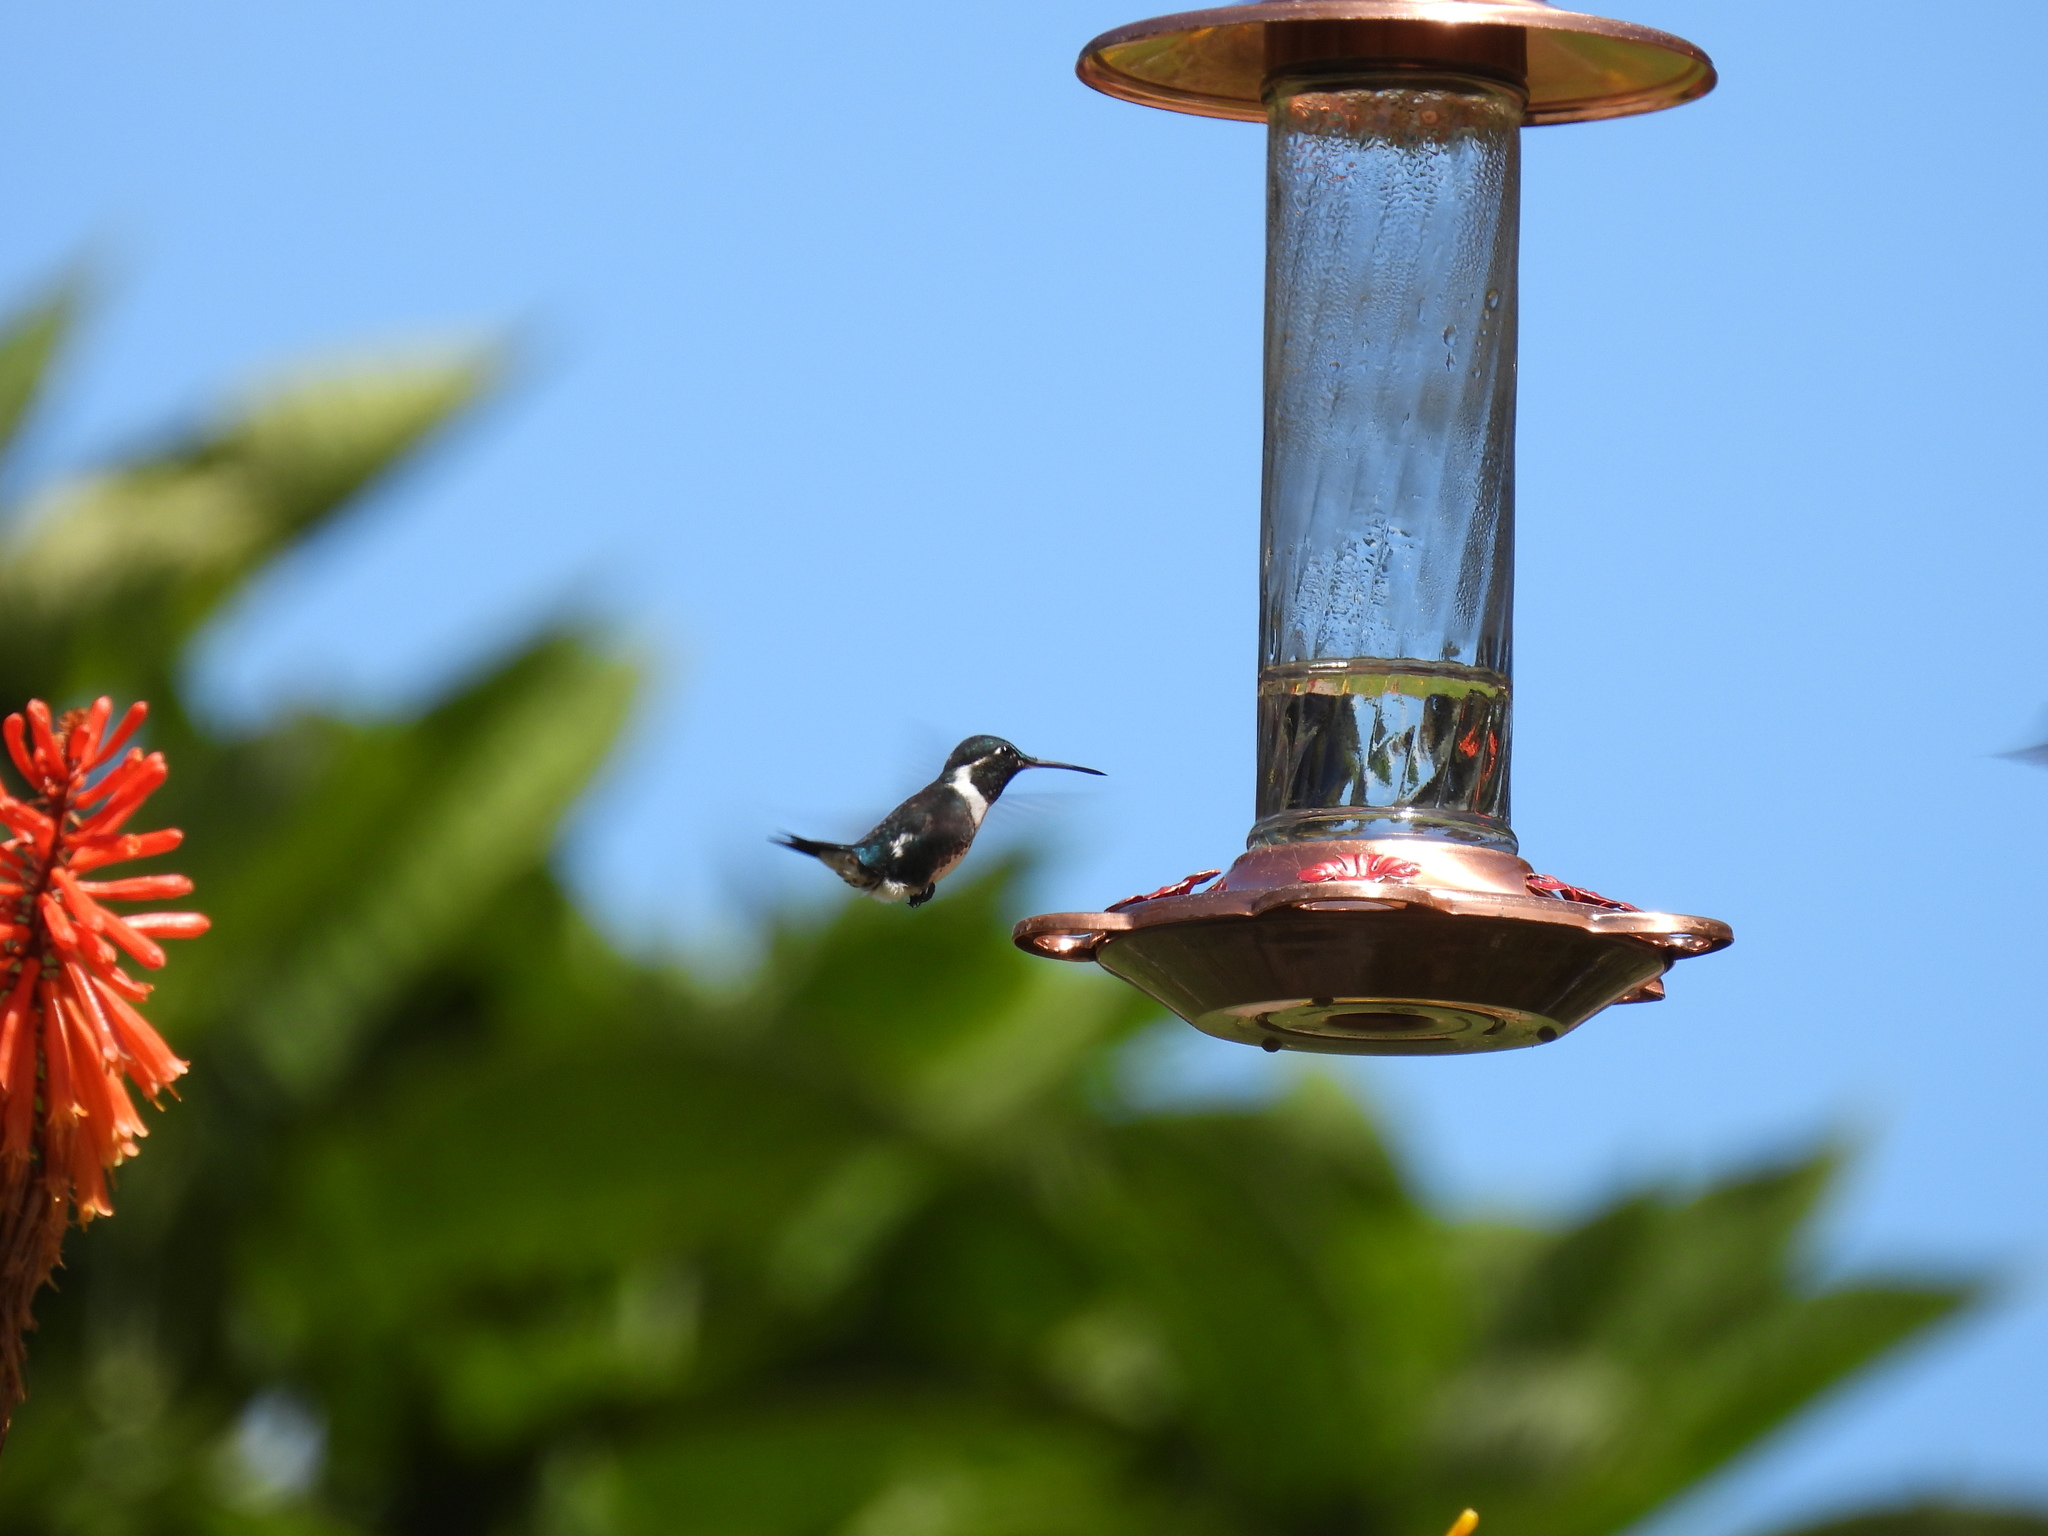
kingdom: Animalia
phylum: Chordata
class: Aves
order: Apodiformes
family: Trochilidae
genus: Chaetocercus
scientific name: Chaetocercus mulsant
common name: White-bellied woodstar
